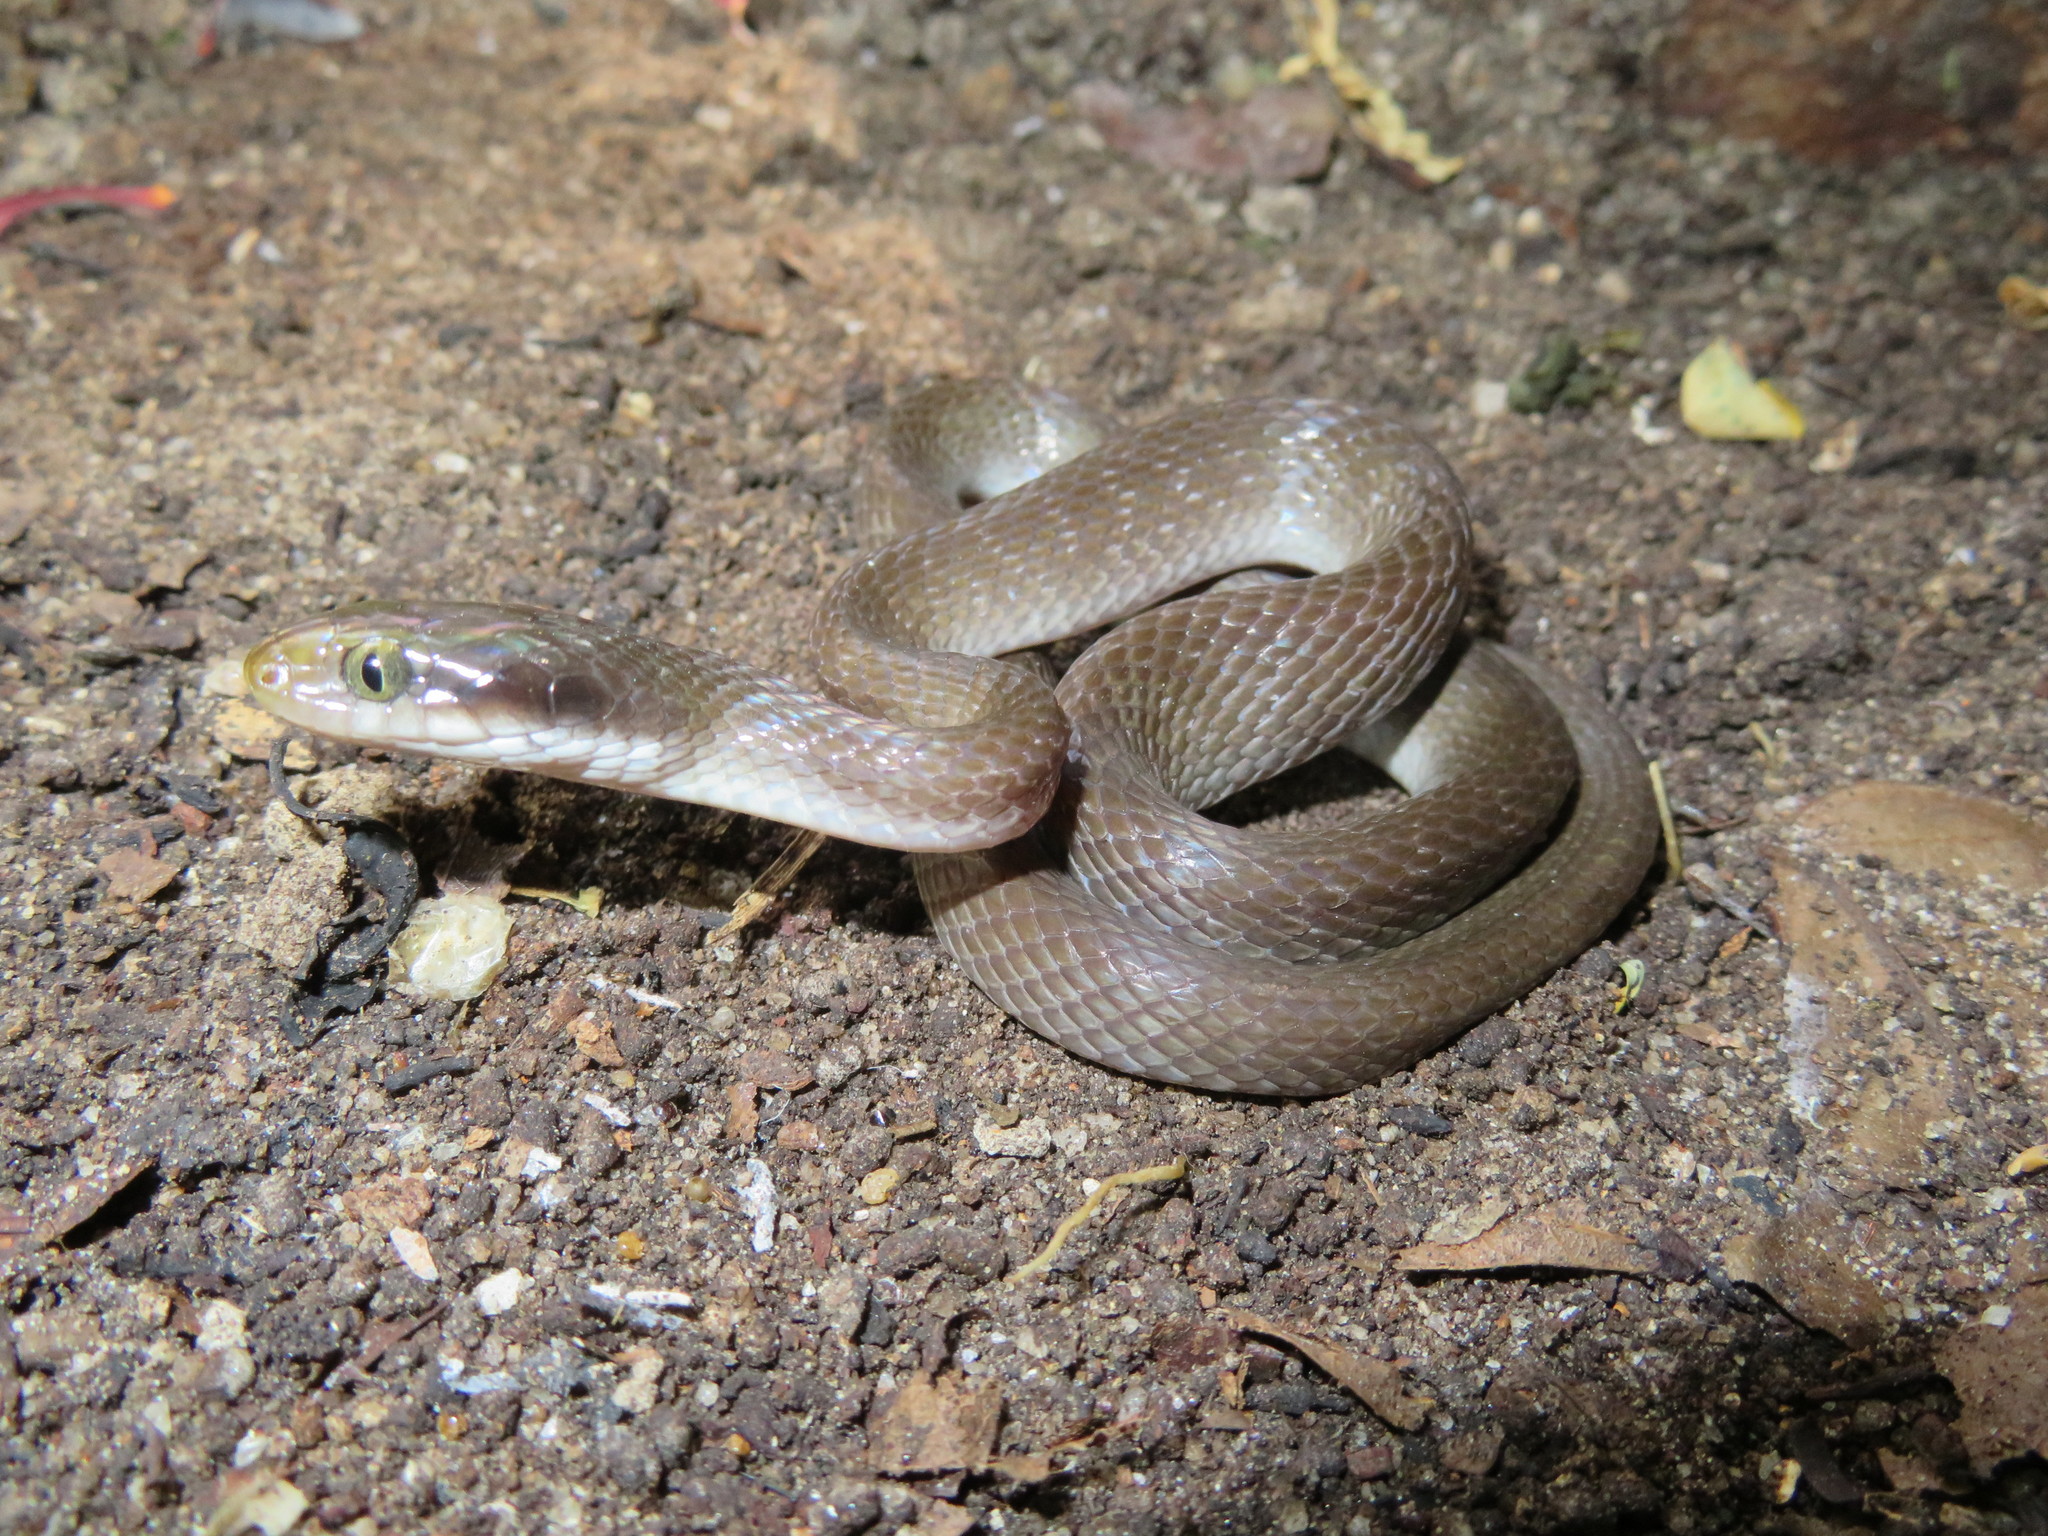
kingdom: Animalia
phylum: Chordata
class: Squamata
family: Colubridae
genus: Crotaphopeltis
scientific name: Crotaphopeltis hotamboeia
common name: Red-lipped snake
